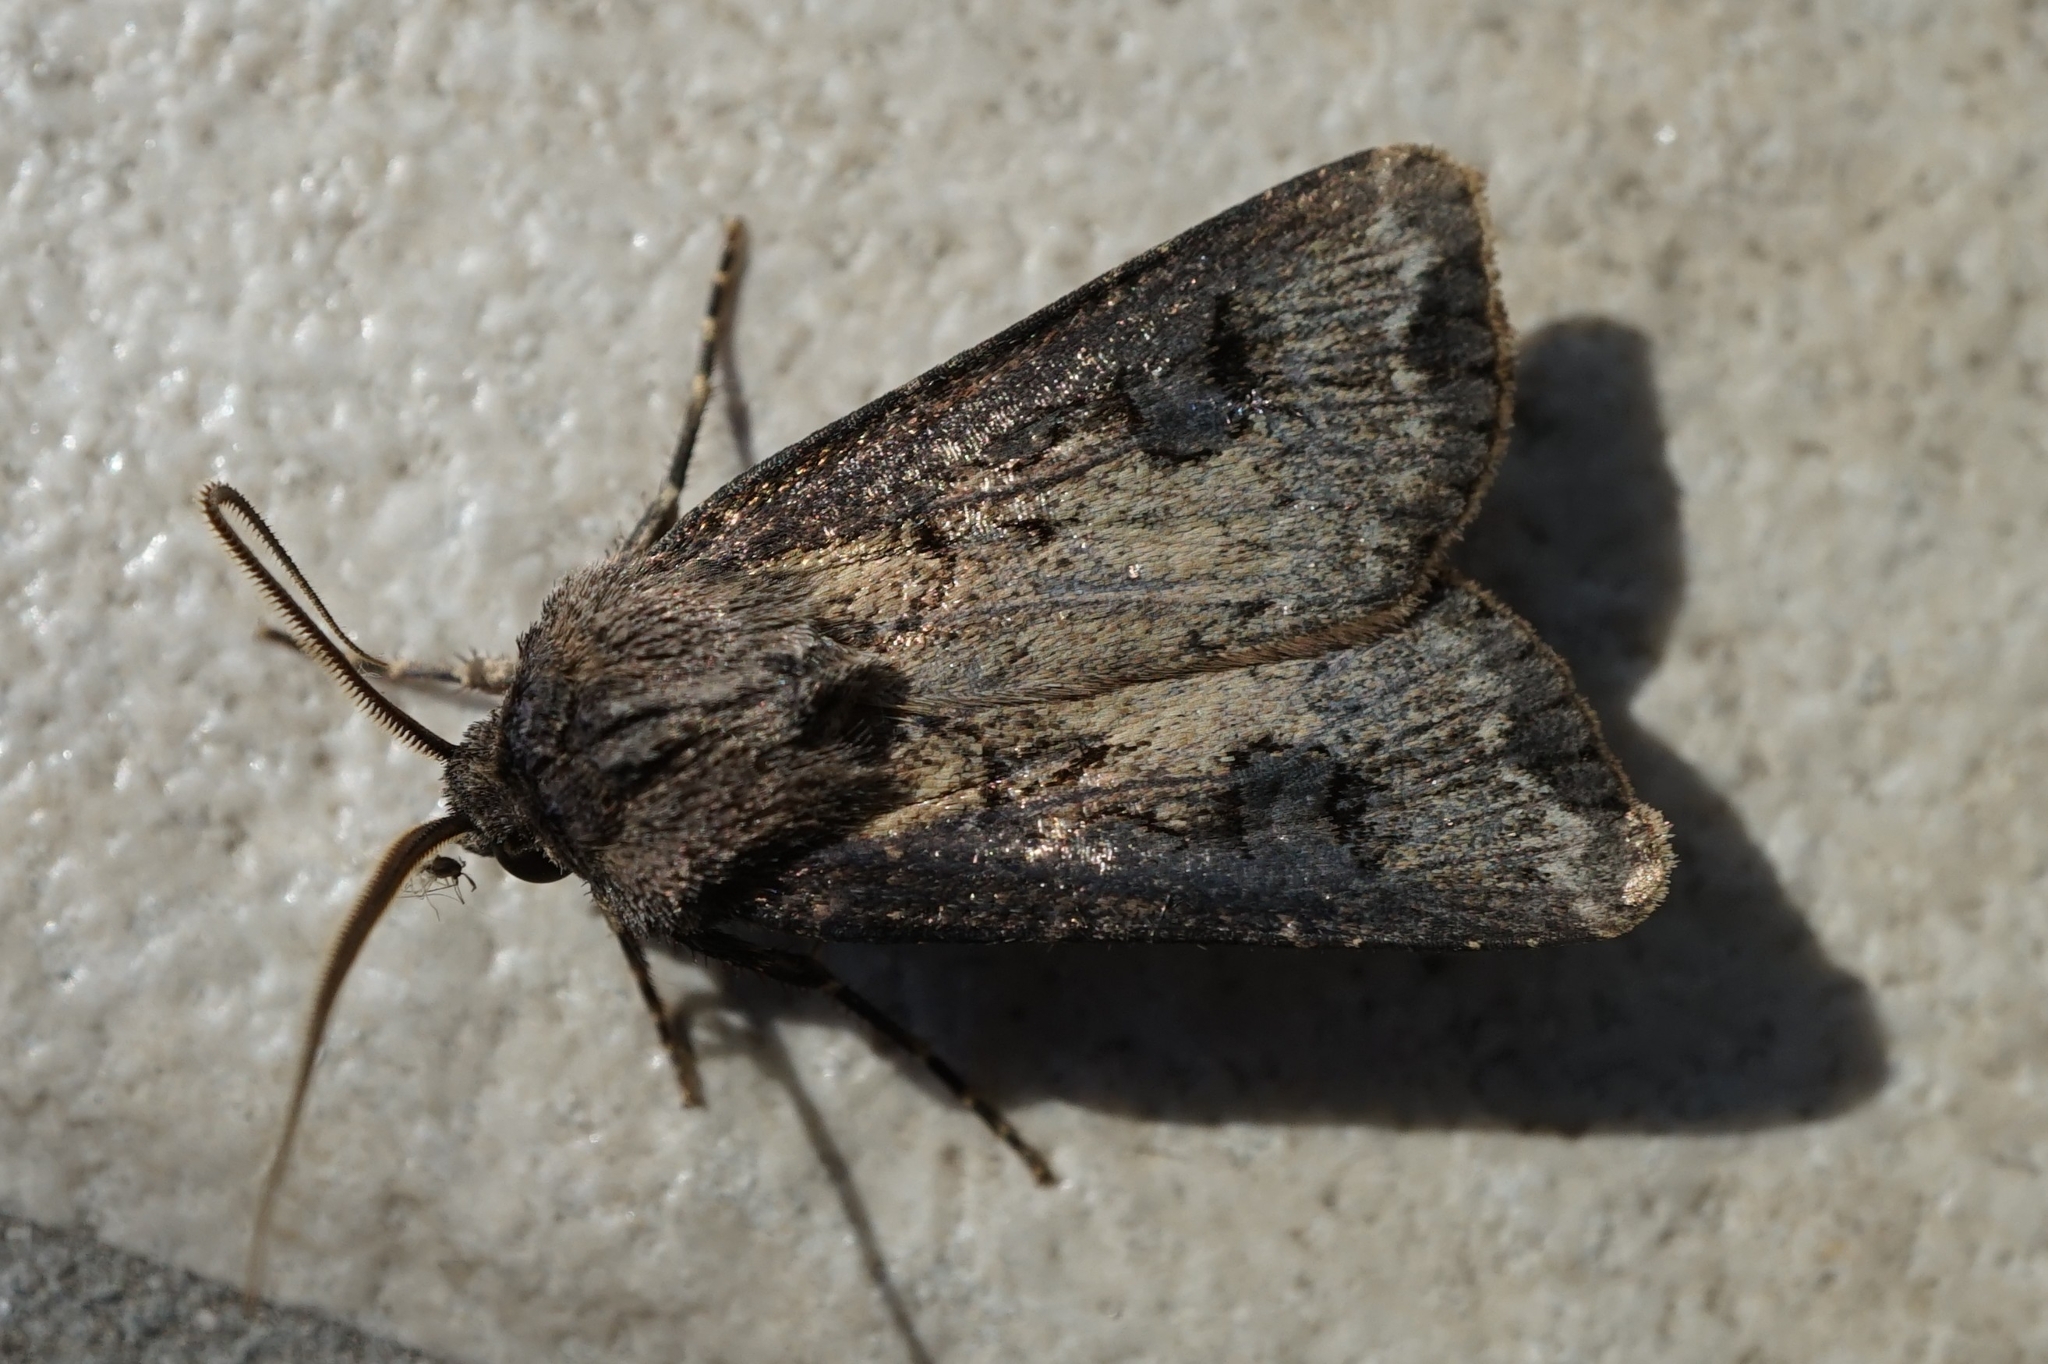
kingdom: Animalia
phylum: Arthropoda
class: Insecta
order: Lepidoptera
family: Noctuidae
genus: Agrotis
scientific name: Agrotis tokionis
